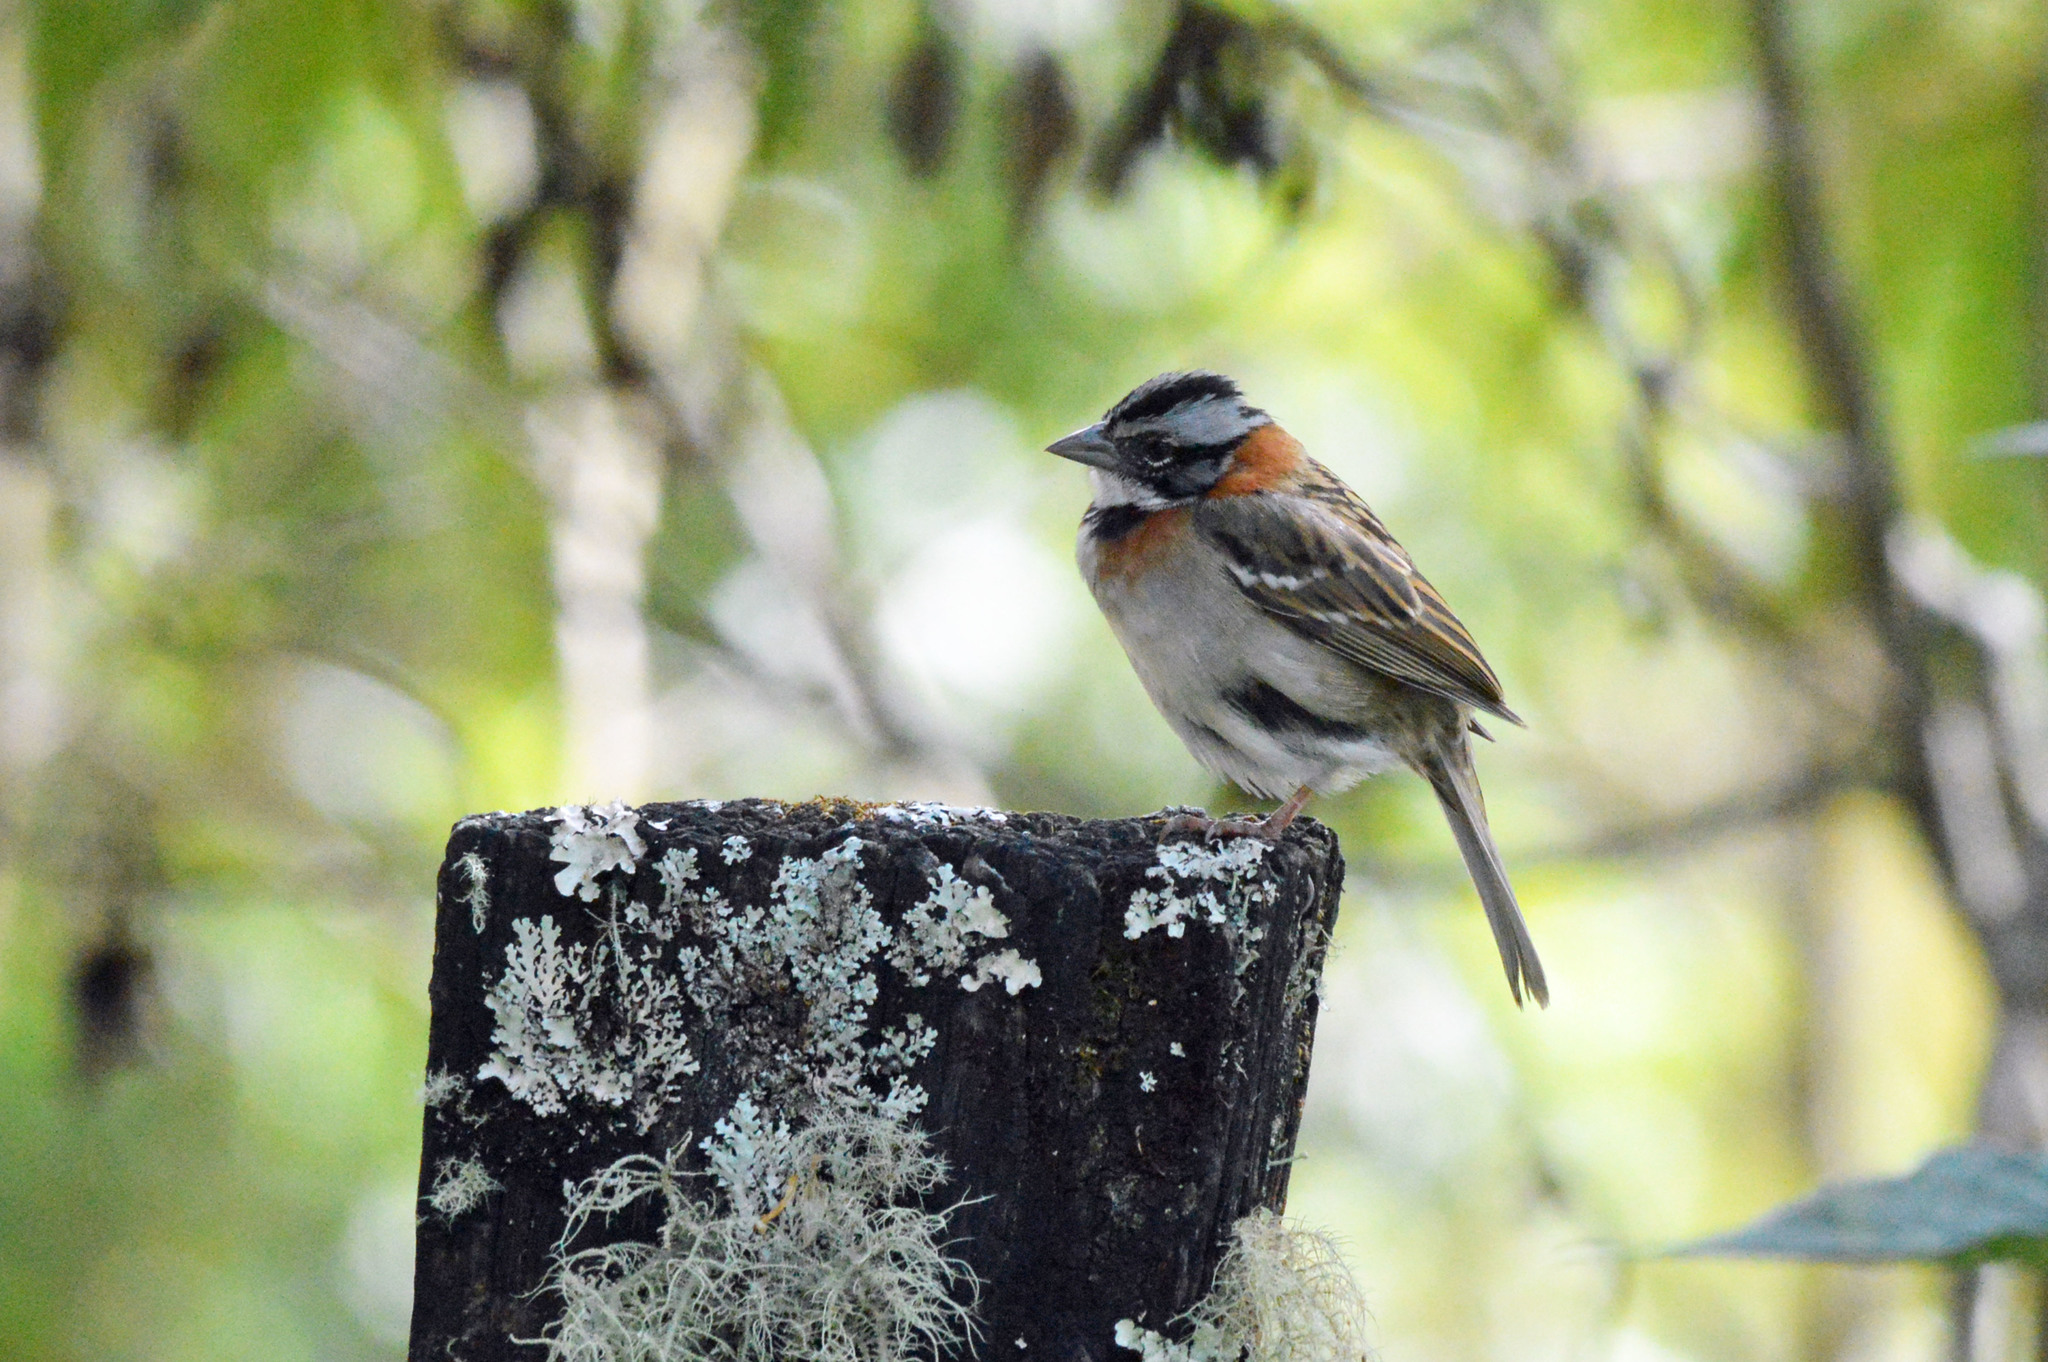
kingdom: Animalia
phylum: Chordata
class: Aves
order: Passeriformes
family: Passerellidae
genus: Zonotrichia
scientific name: Zonotrichia capensis
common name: Rufous-collared sparrow
